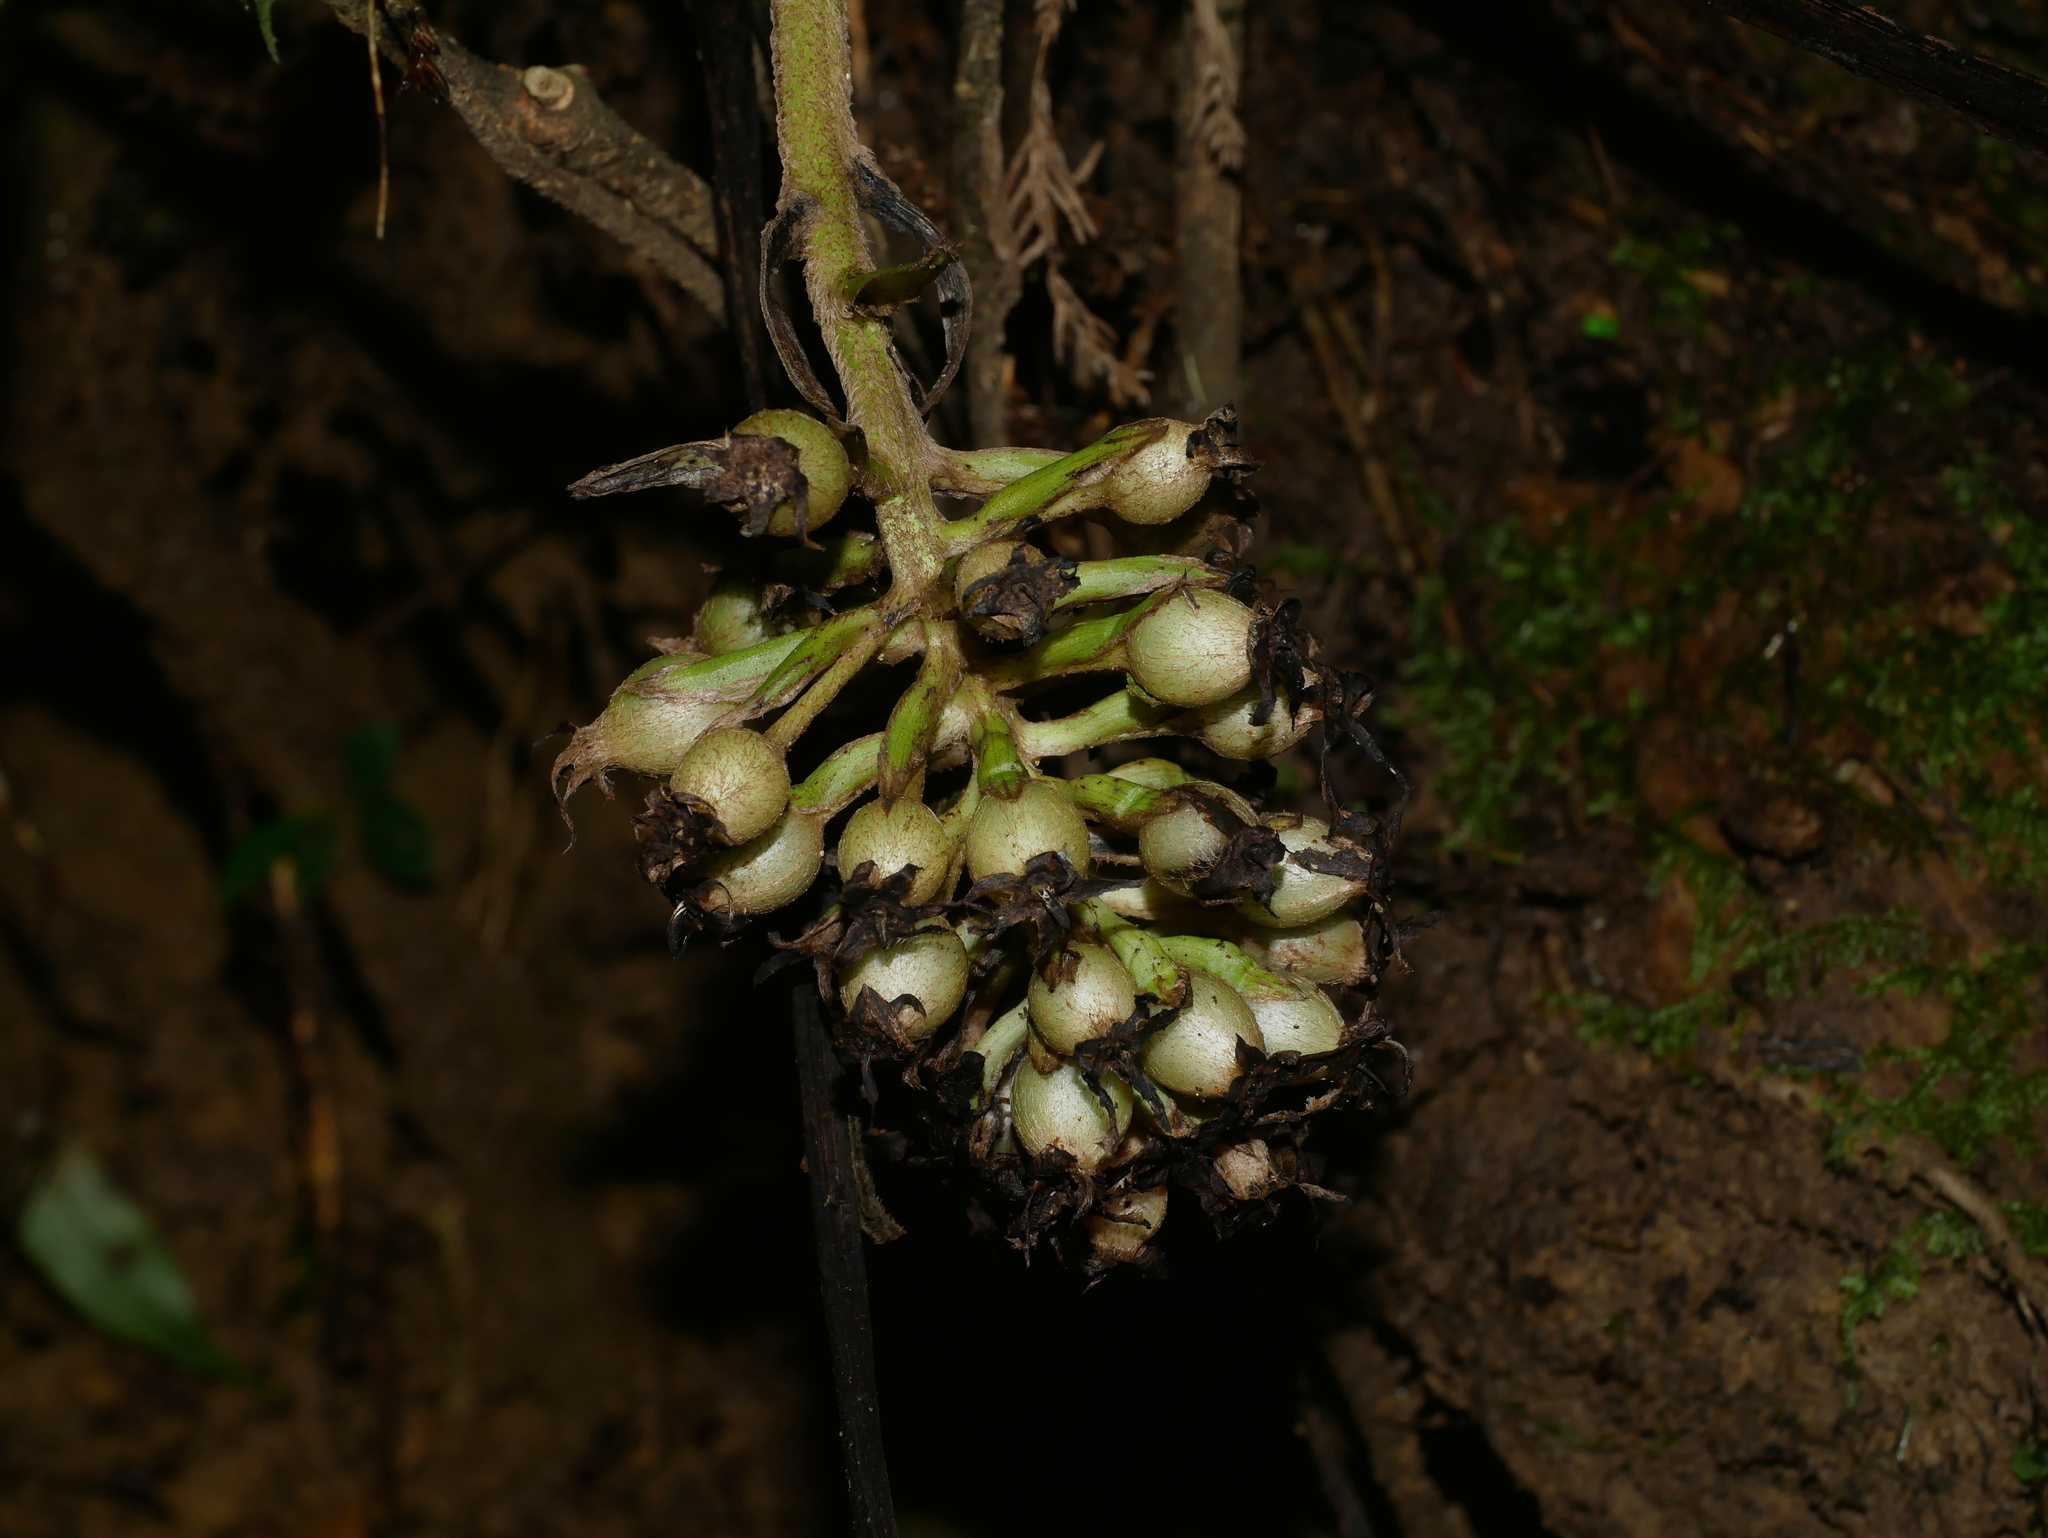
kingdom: Plantae
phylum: Tracheophyta
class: Liliopsida
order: Asparagales
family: Hypoxidaceae
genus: Curculigo
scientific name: Curculigo capitulata
